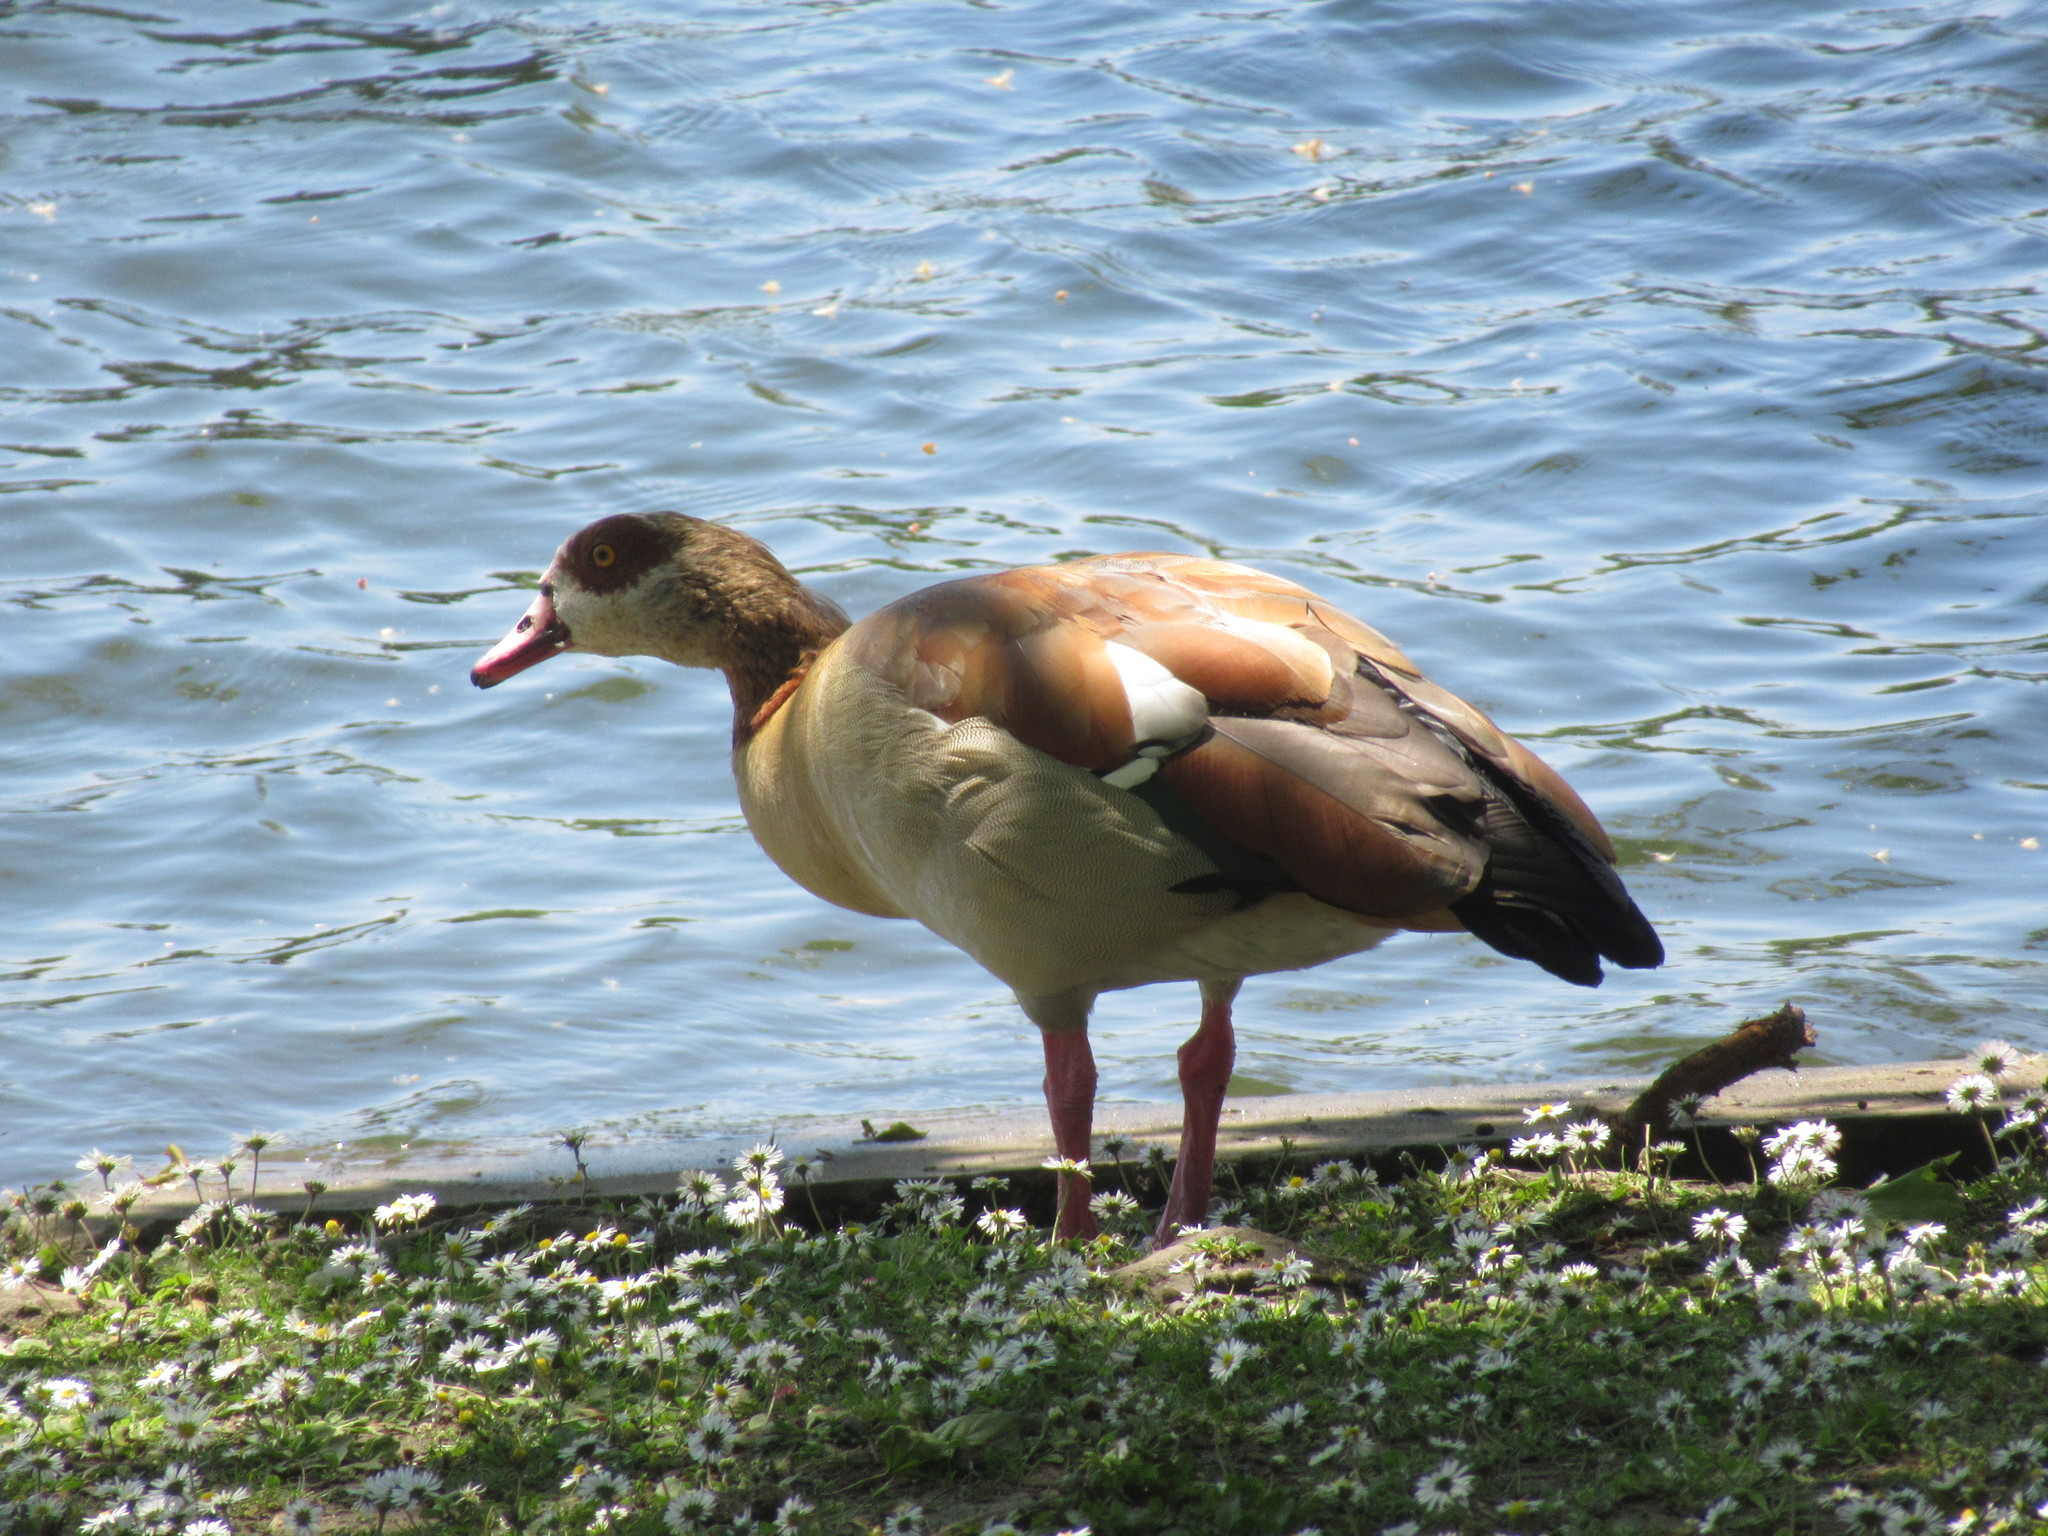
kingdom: Animalia
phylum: Chordata
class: Aves
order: Anseriformes
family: Anatidae
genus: Alopochen
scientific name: Alopochen aegyptiaca
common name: Egyptian goose
